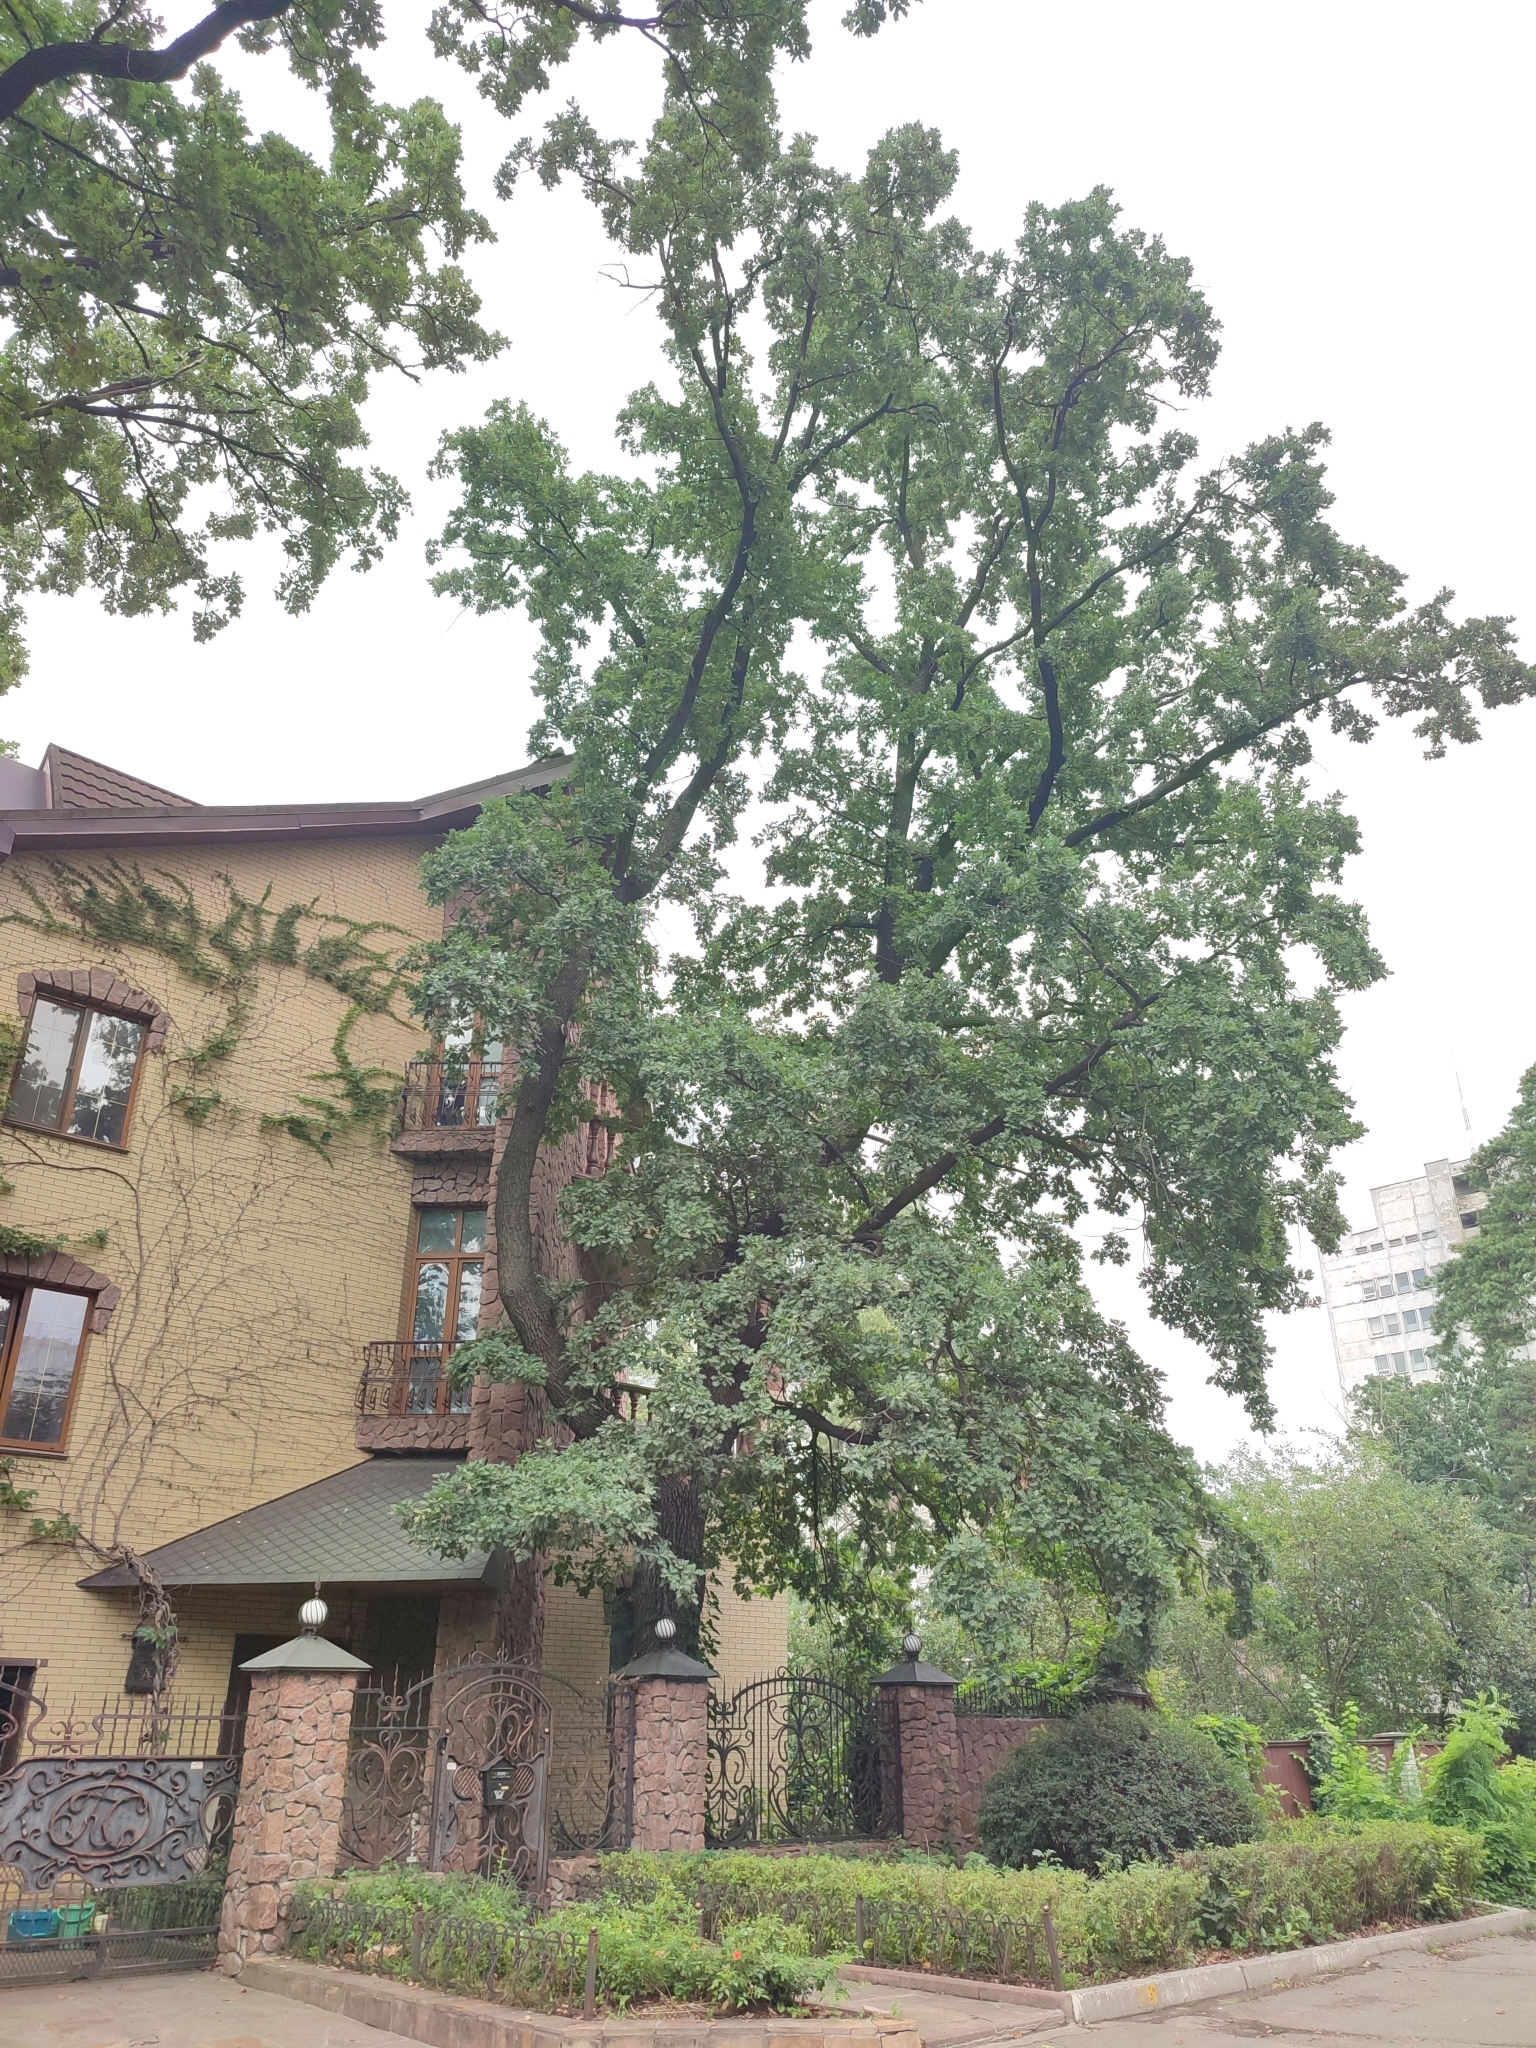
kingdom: Plantae
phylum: Tracheophyta
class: Magnoliopsida
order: Fagales
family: Fagaceae
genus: Quercus
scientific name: Quercus robur
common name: Pedunculate oak
